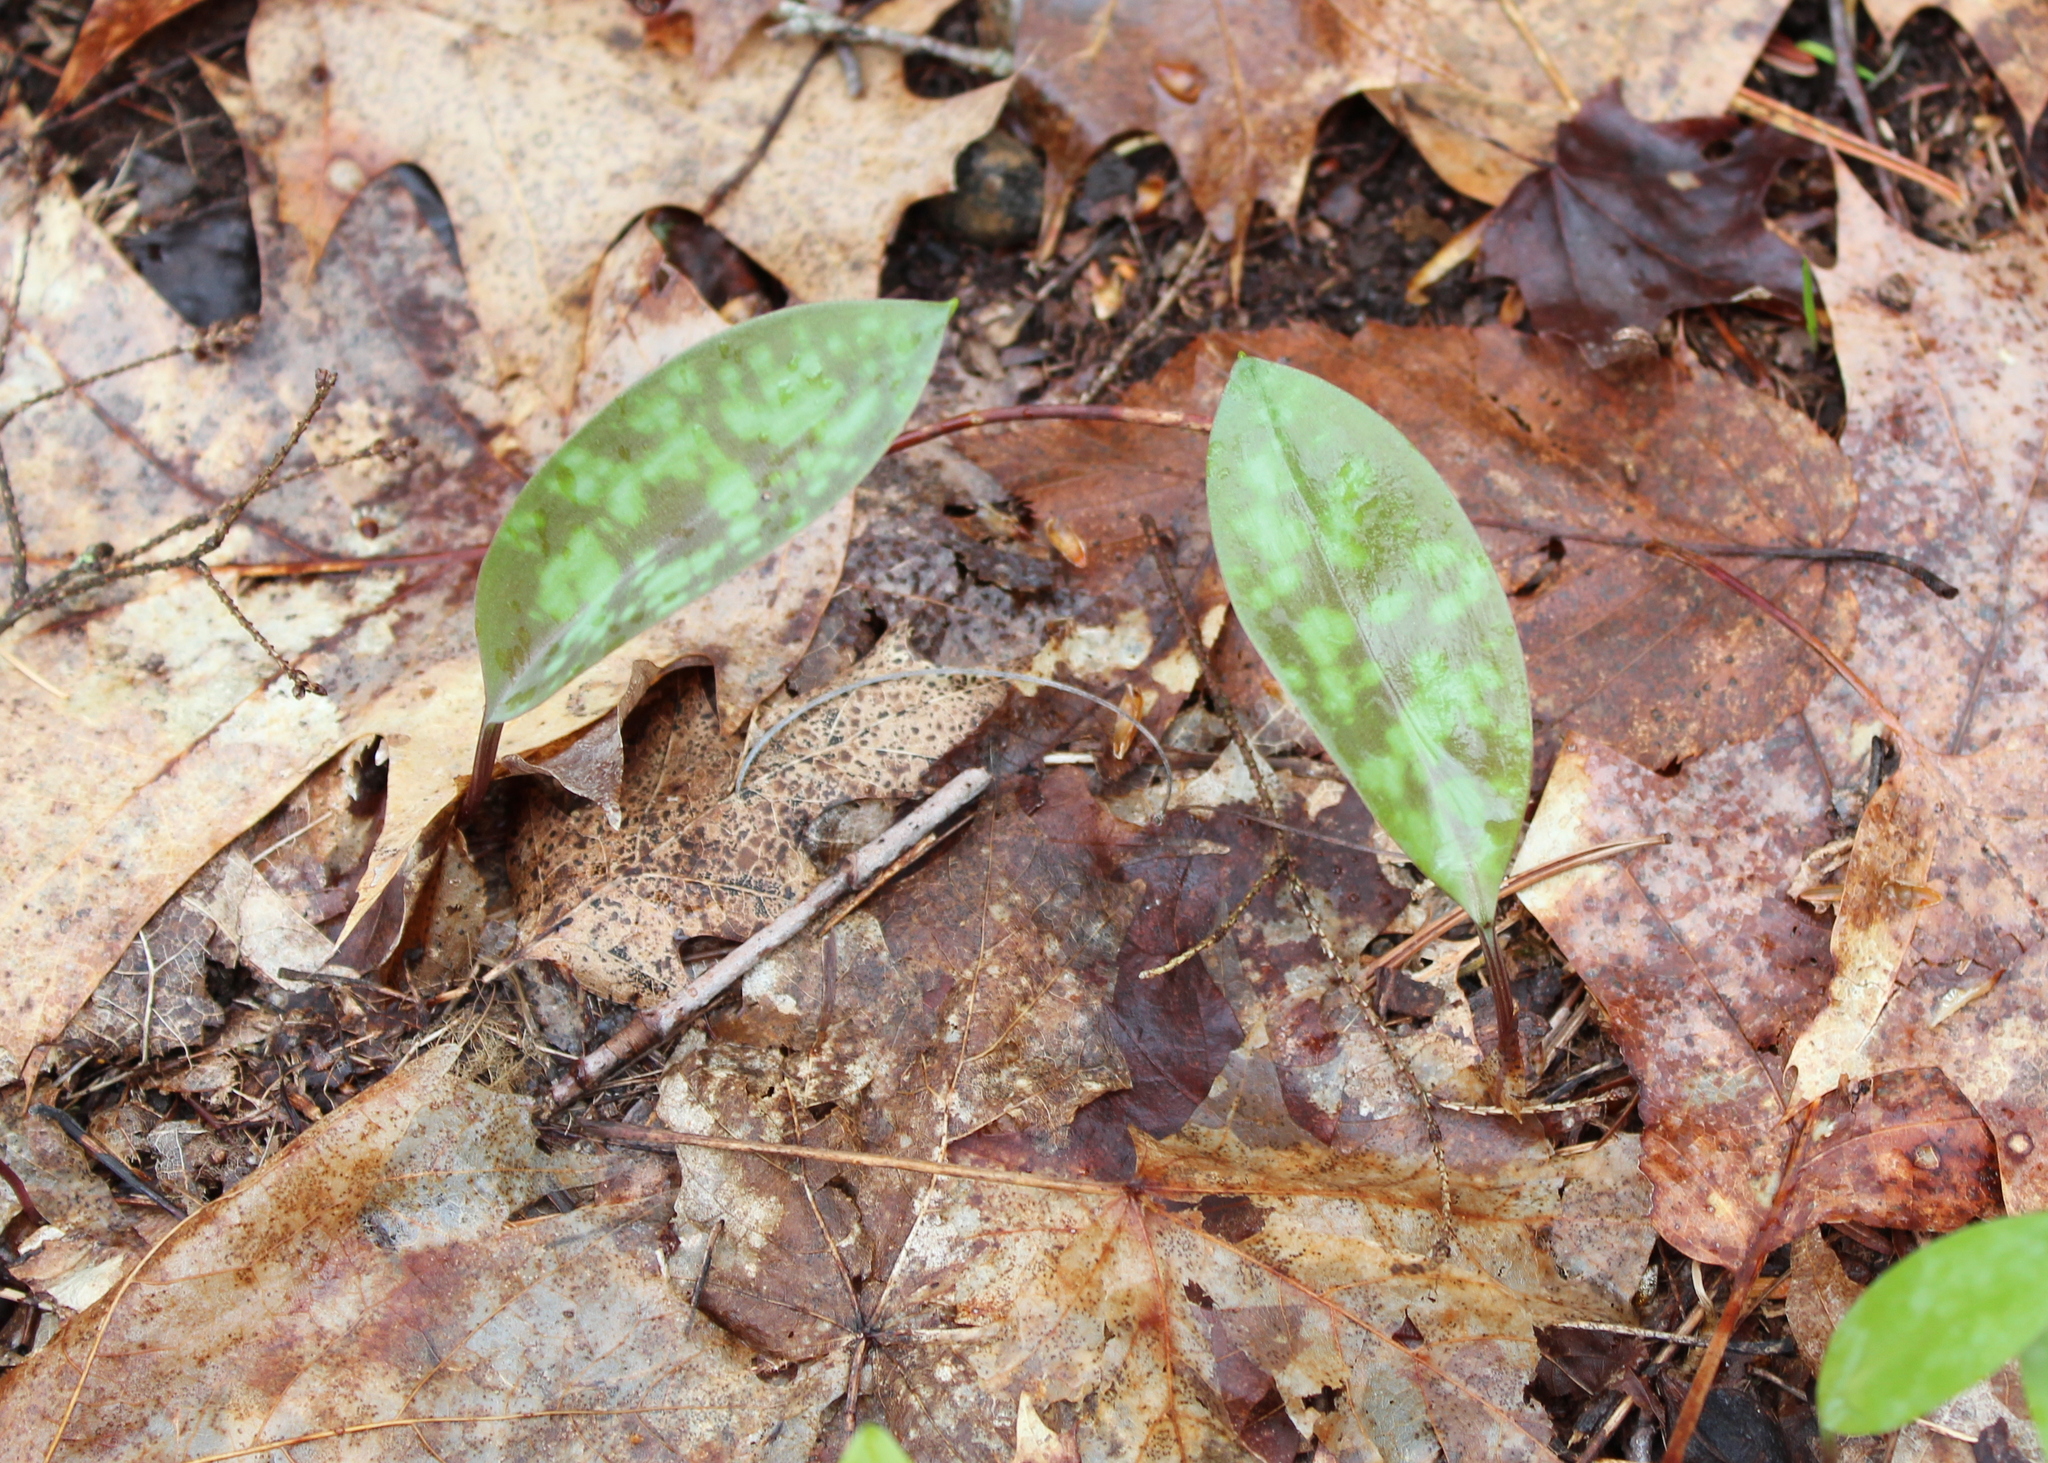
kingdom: Plantae
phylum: Tracheophyta
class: Liliopsida
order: Liliales
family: Liliaceae
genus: Erythronium
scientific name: Erythronium americanum
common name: Yellow adder's-tongue
